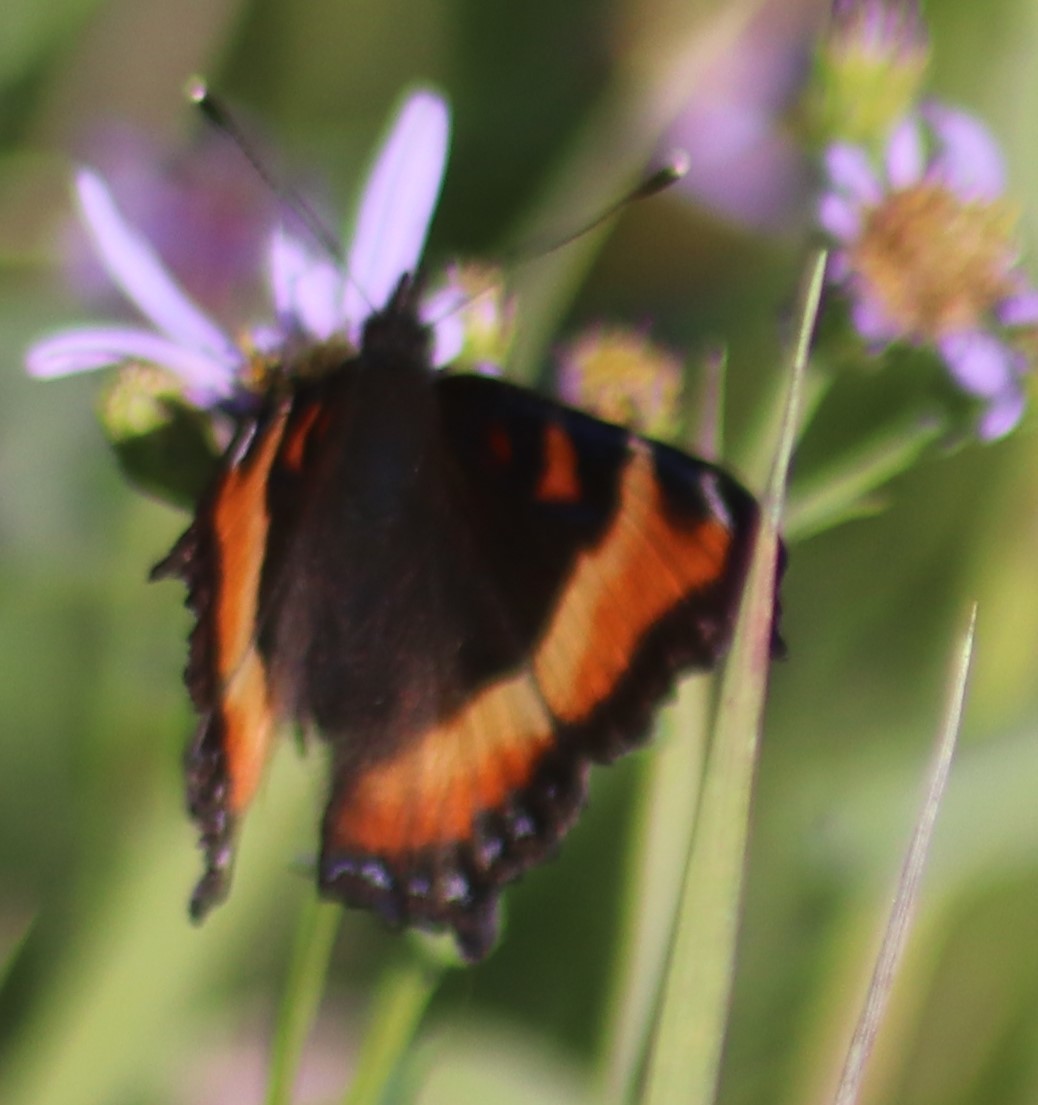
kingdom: Animalia
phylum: Arthropoda
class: Insecta
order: Lepidoptera
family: Nymphalidae
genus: Aglais
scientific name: Aglais milberti
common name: Milbert's tortoiseshell
